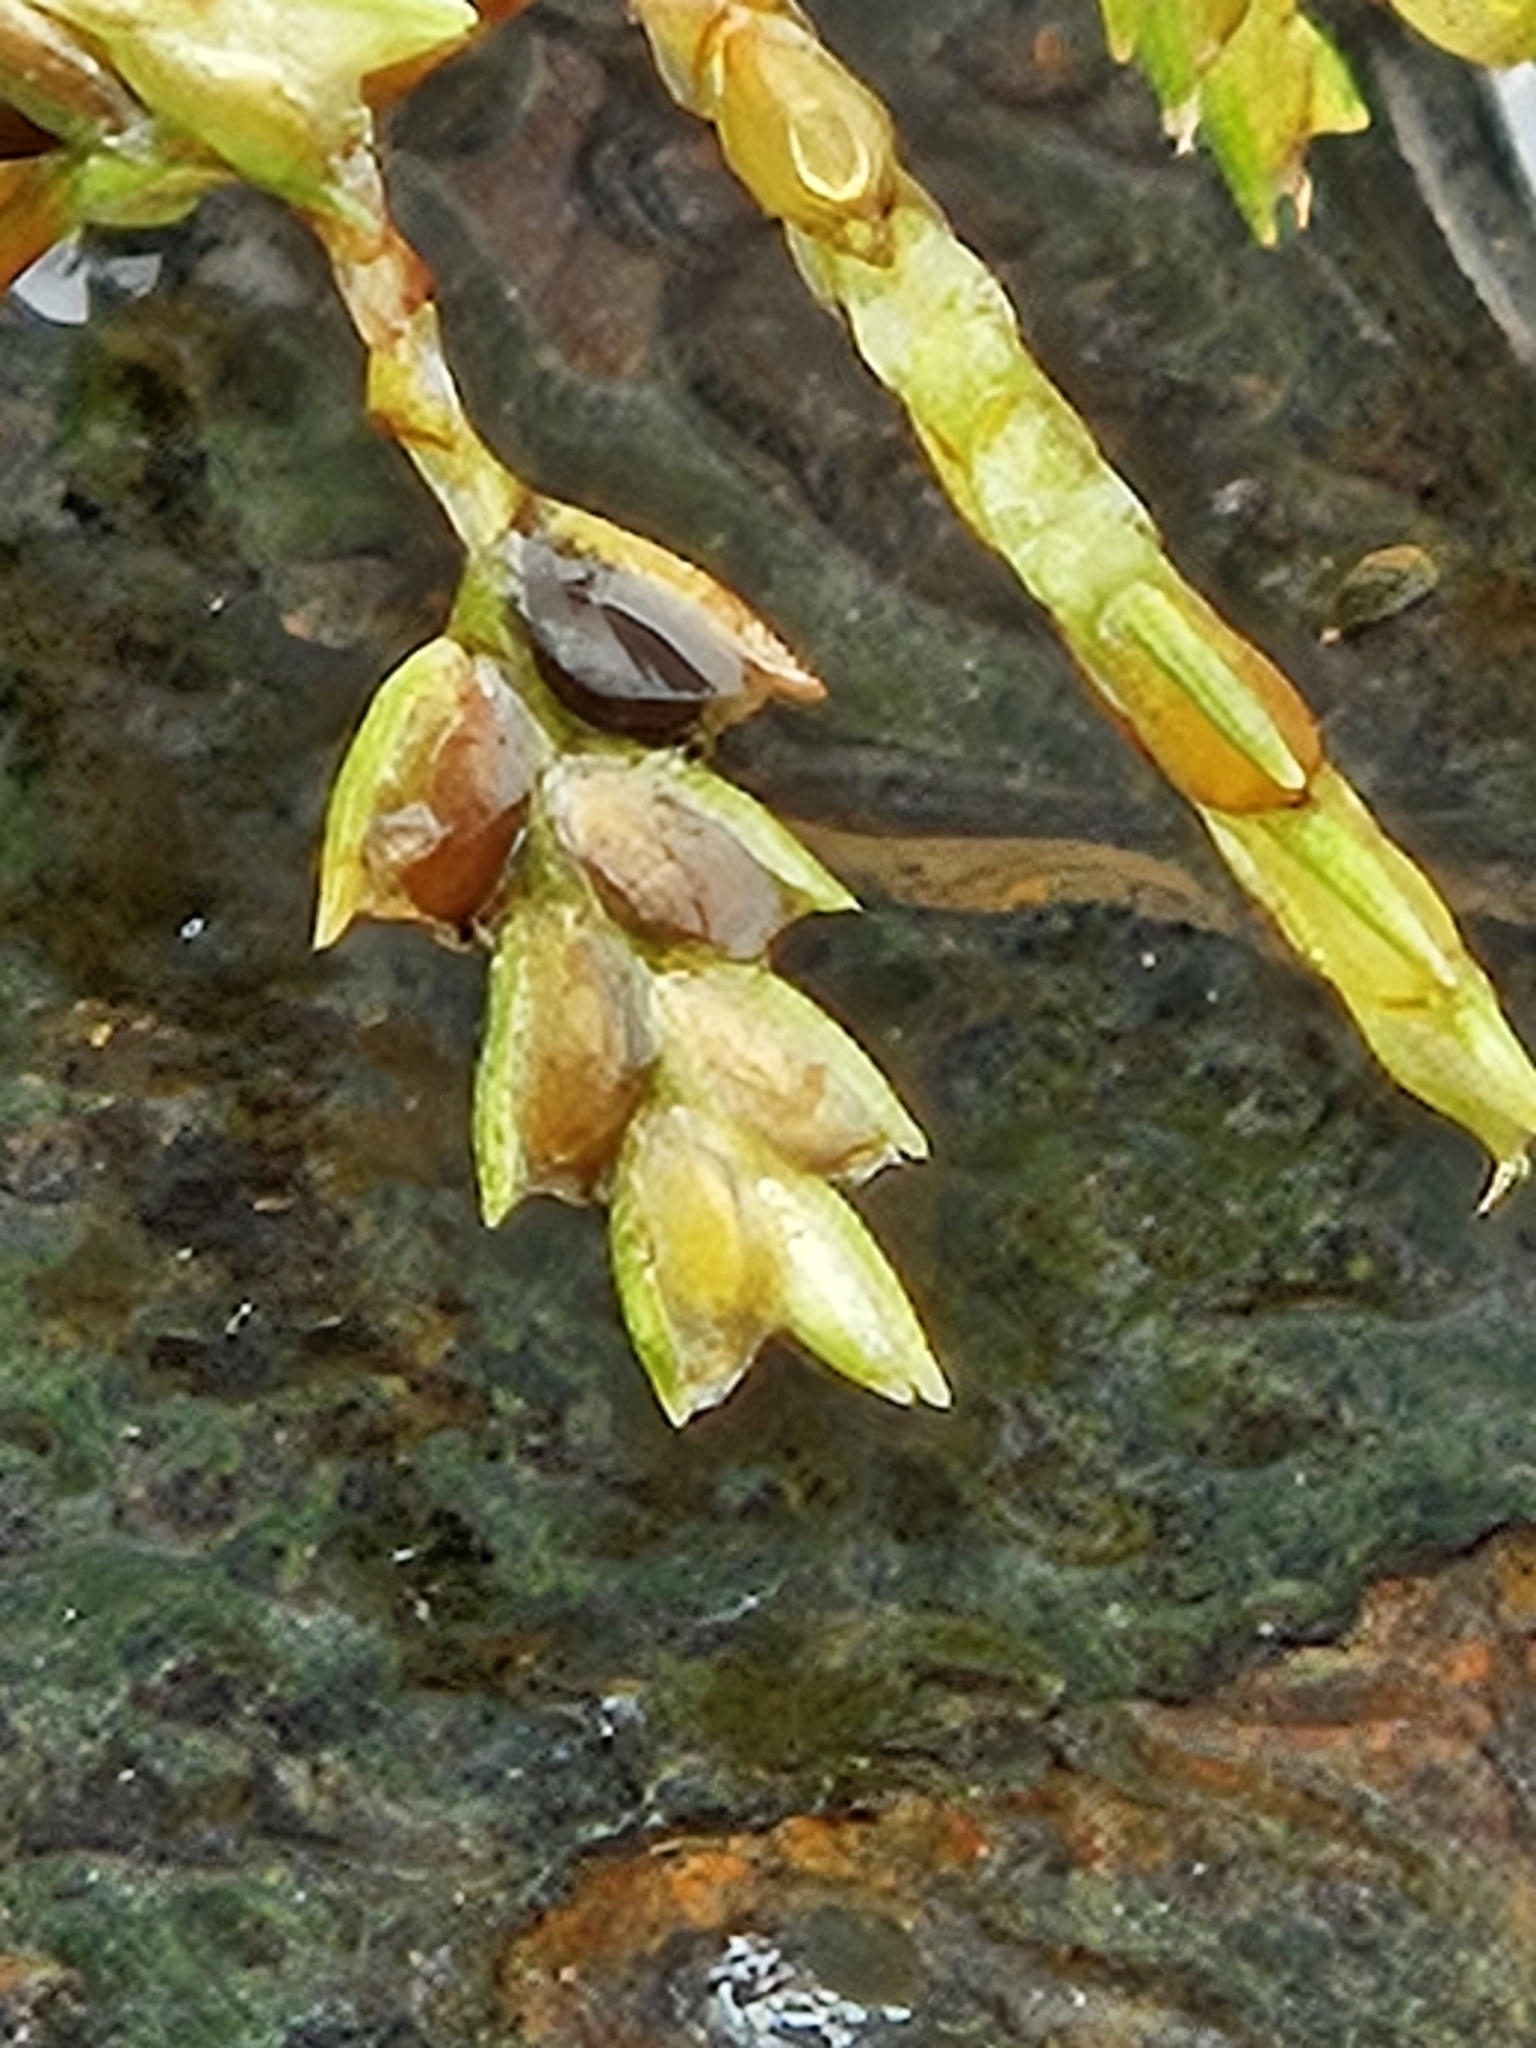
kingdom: Plantae
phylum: Tracheophyta
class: Liliopsida
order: Poales
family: Cyperaceae
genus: Cyperus
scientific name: Cyperus microiria
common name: Asian flatsedge
